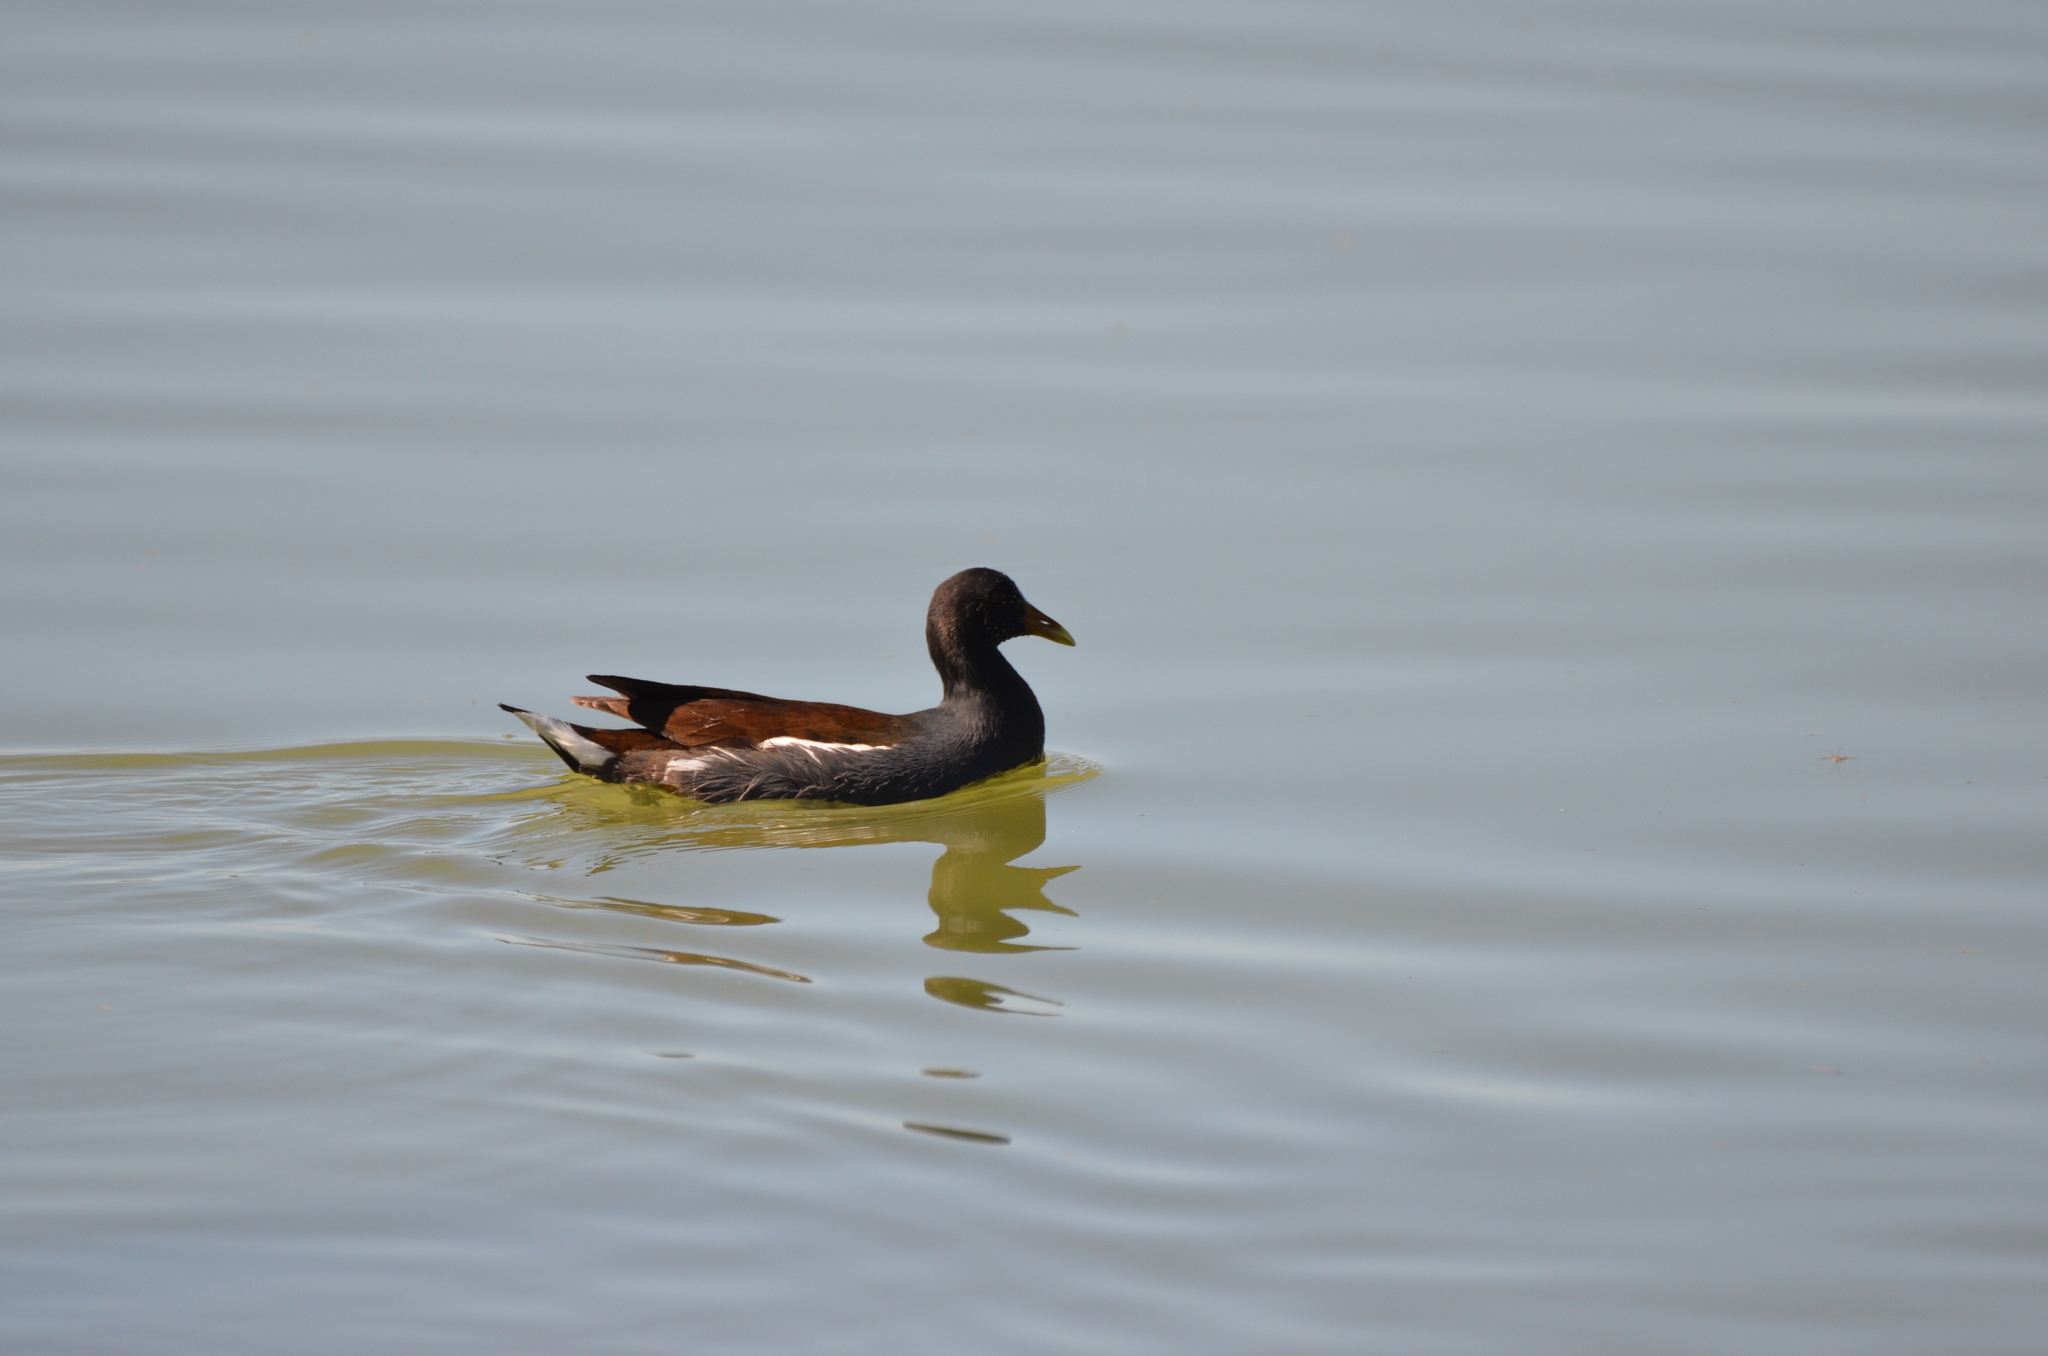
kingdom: Animalia
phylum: Chordata
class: Aves
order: Gruiformes
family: Rallidae
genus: Gallinula
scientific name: Gallinula chloropus
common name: Common moorhen
